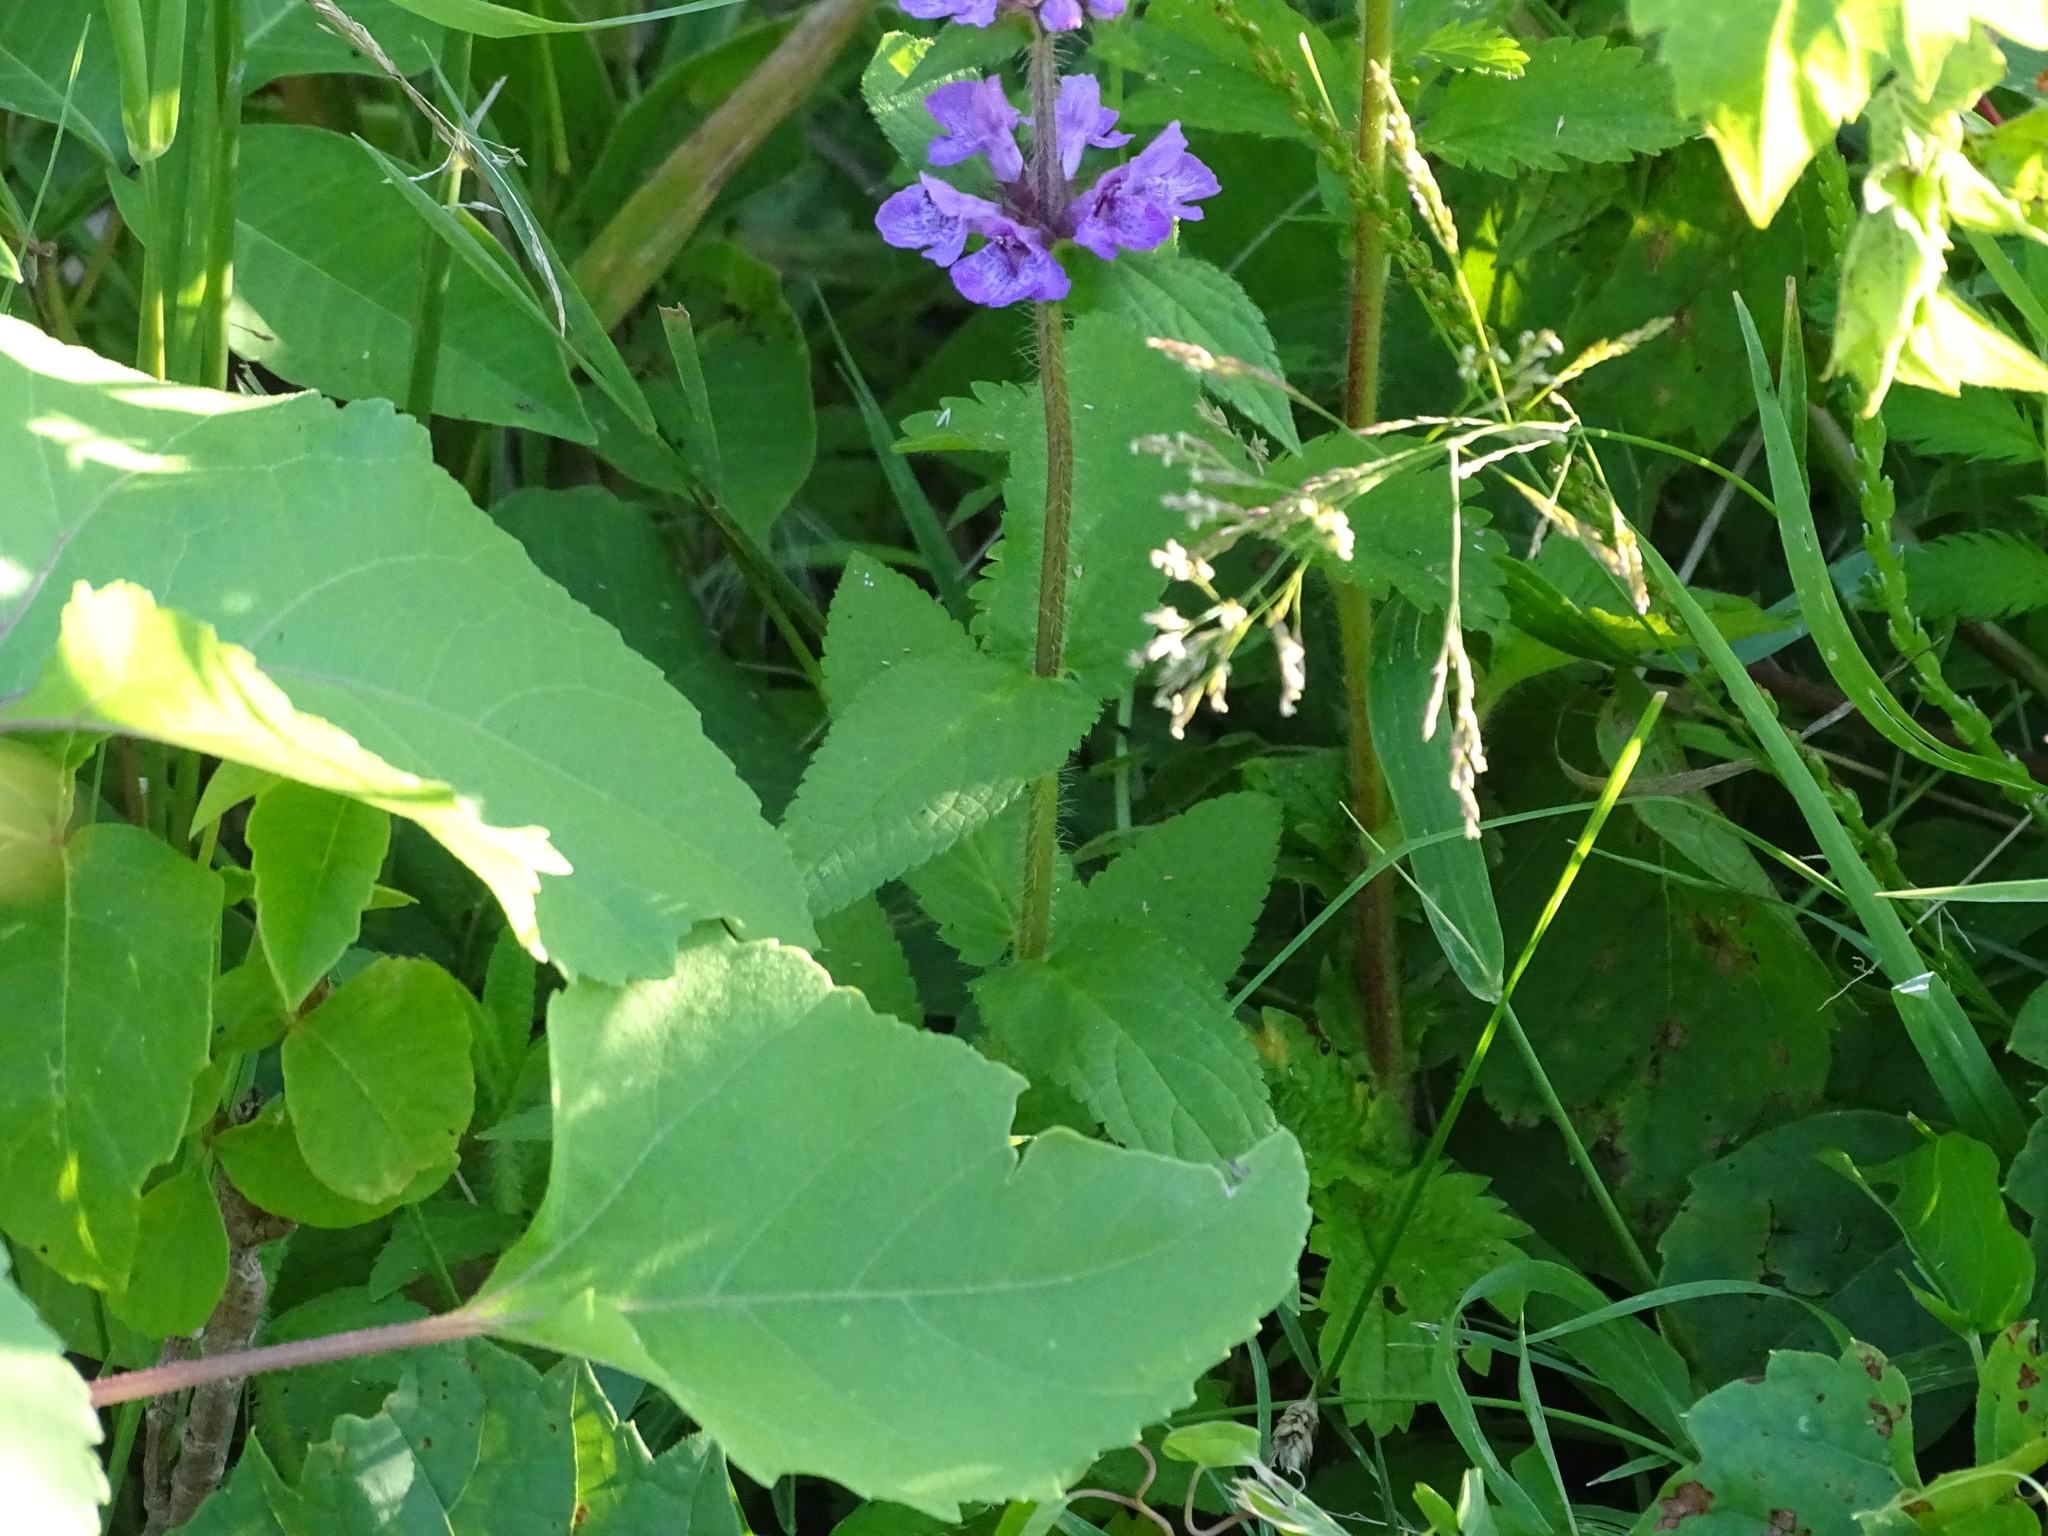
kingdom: Plantae
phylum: Tracheophyta
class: Magnoliopsida
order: Lamiales
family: Lamiaceae
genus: Stachys
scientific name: Stachys palustris
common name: Marsh woundwort
